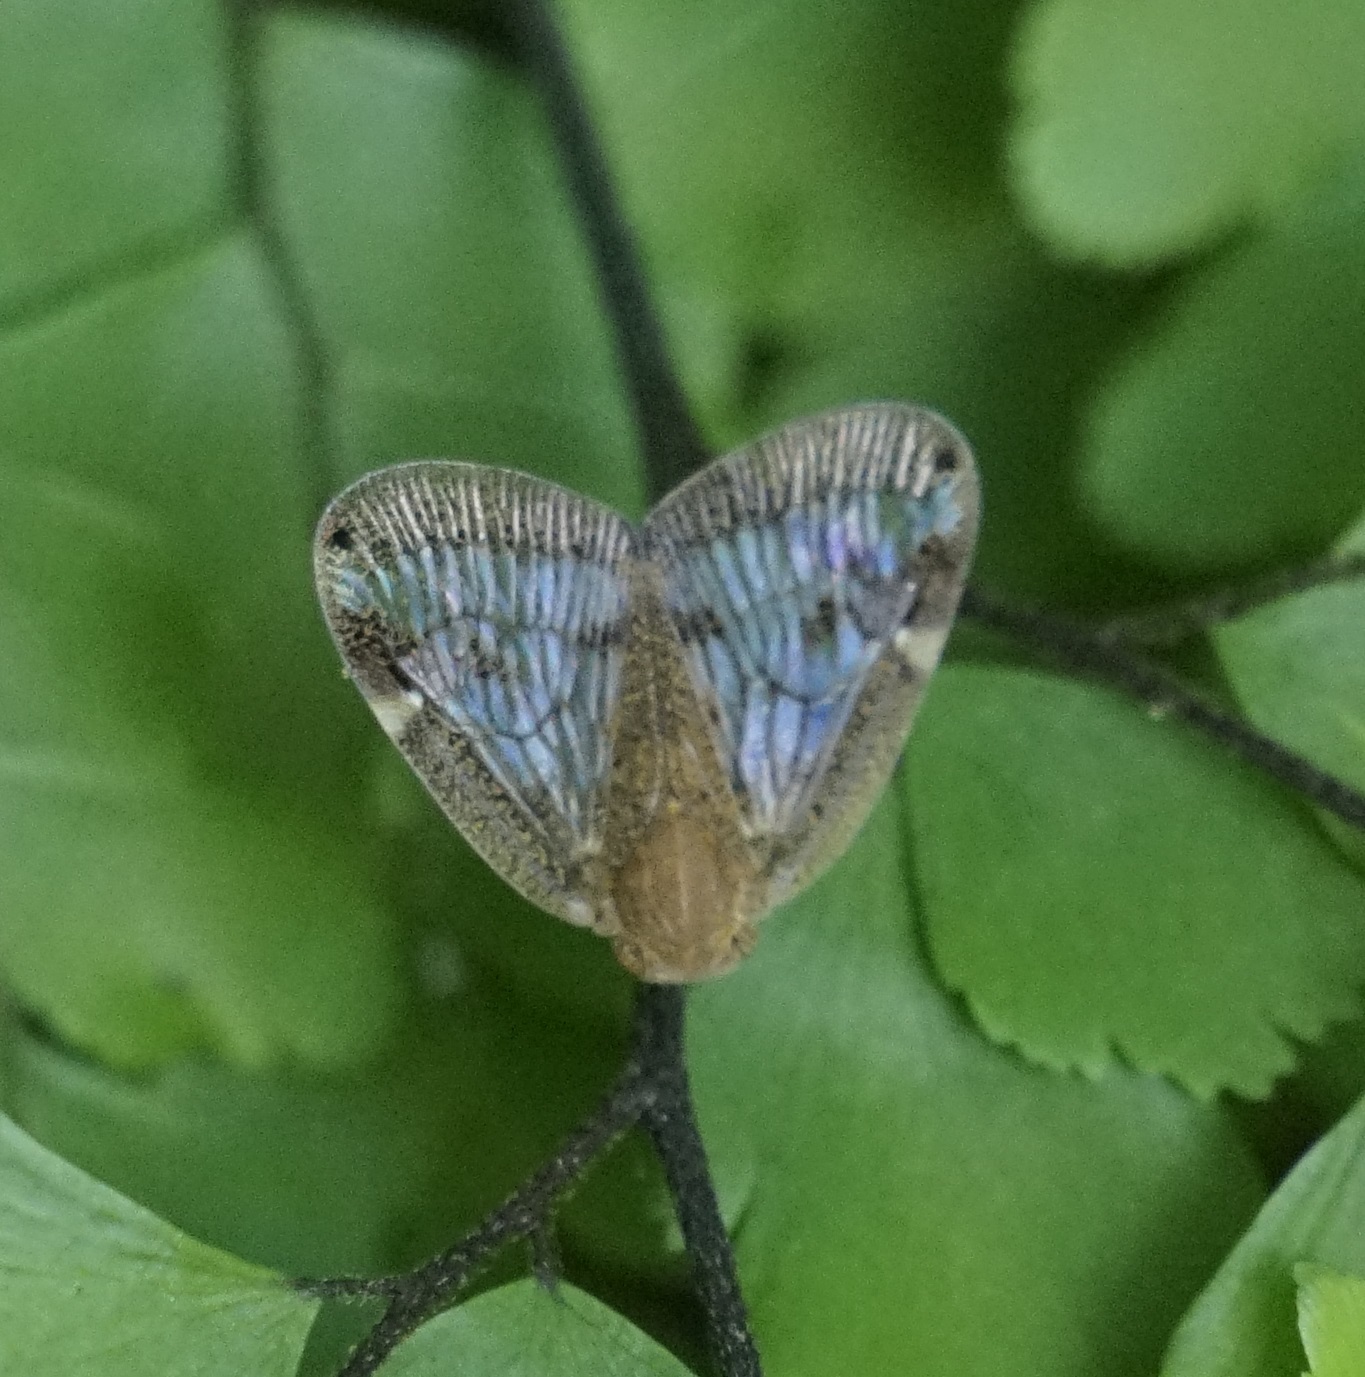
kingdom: Animalia
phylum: Arthropoda
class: Insecta
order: Hemiptera
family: Ricaniidae
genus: Scolypopa
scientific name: Scolypopa australis
